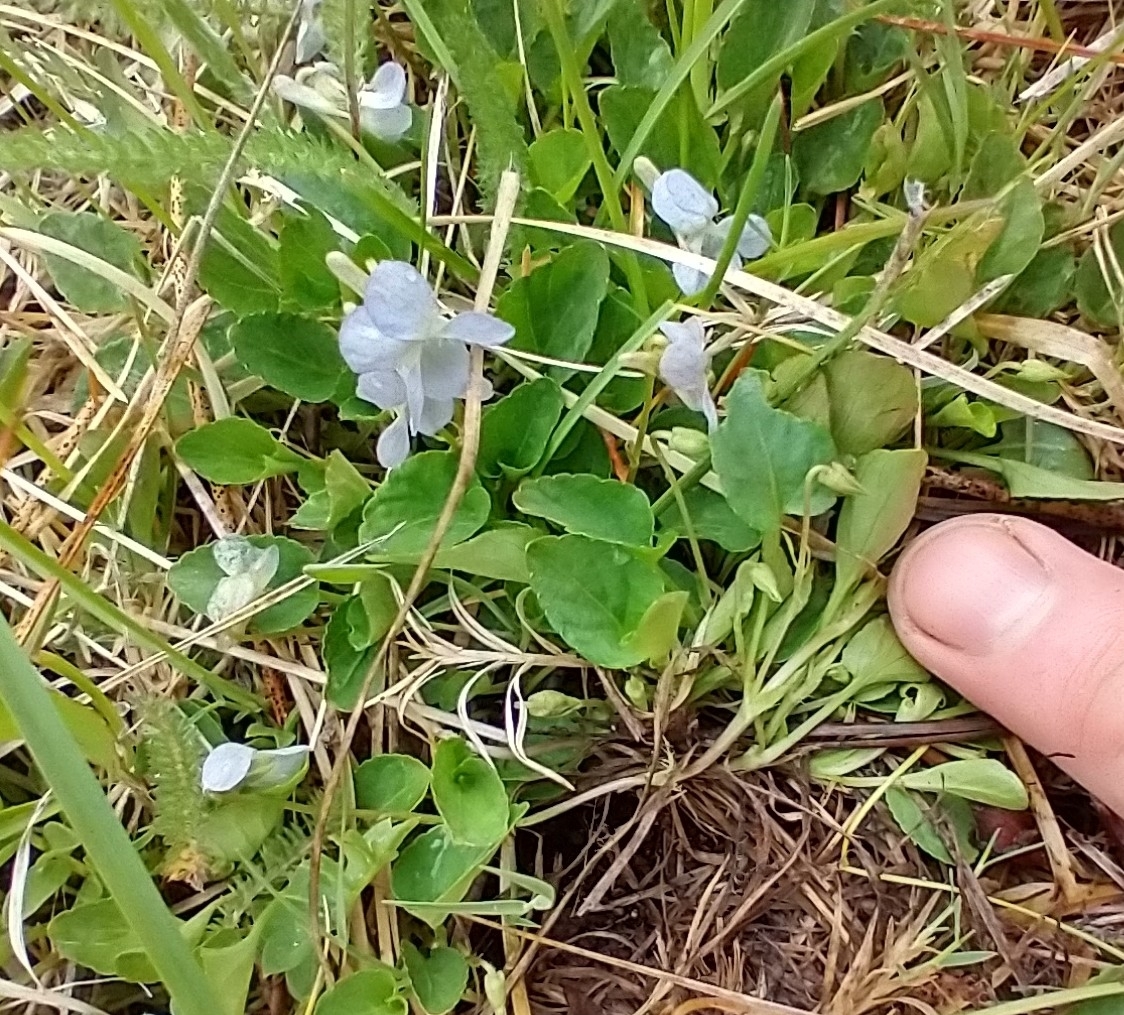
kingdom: Plantae
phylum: Tracheophyta
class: Magnoliopsida
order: Malpighiales
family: Violaceae
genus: Viola
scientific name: Viola adunca
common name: Sand violet
